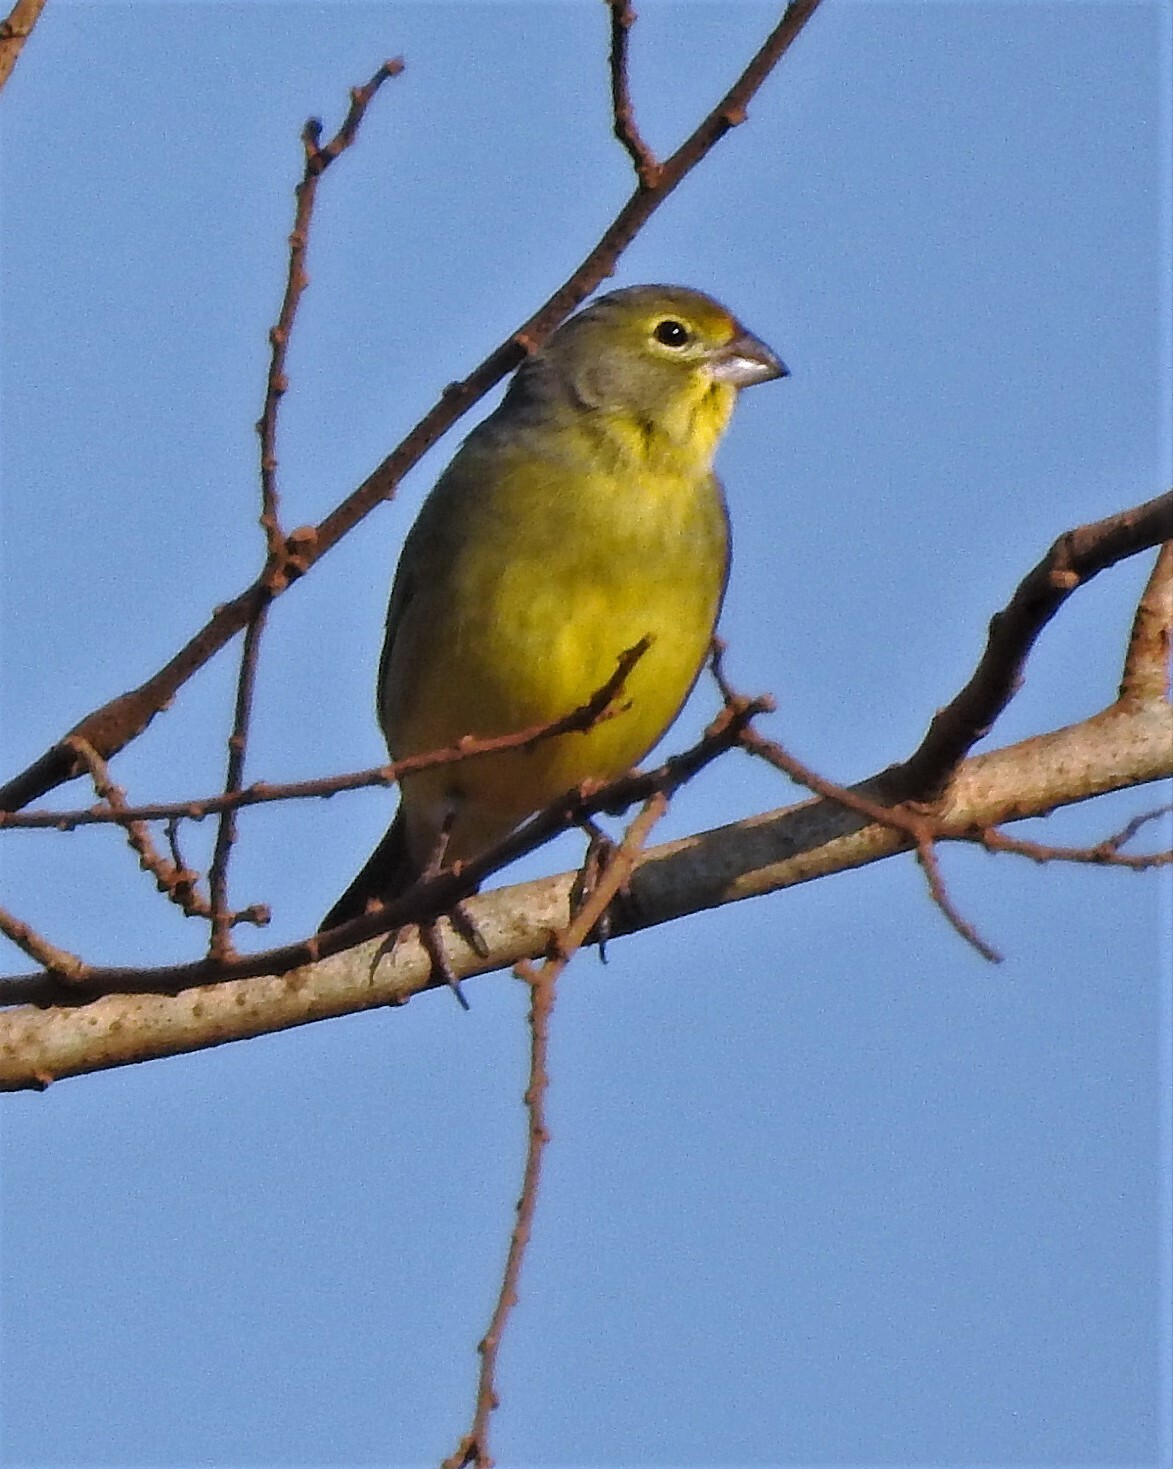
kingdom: Animalia
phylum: Chordata
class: Aves
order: Passeriformes
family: Thraupidae
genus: Sicalis
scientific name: Sicalis luteola
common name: Grassland yellow-finch
